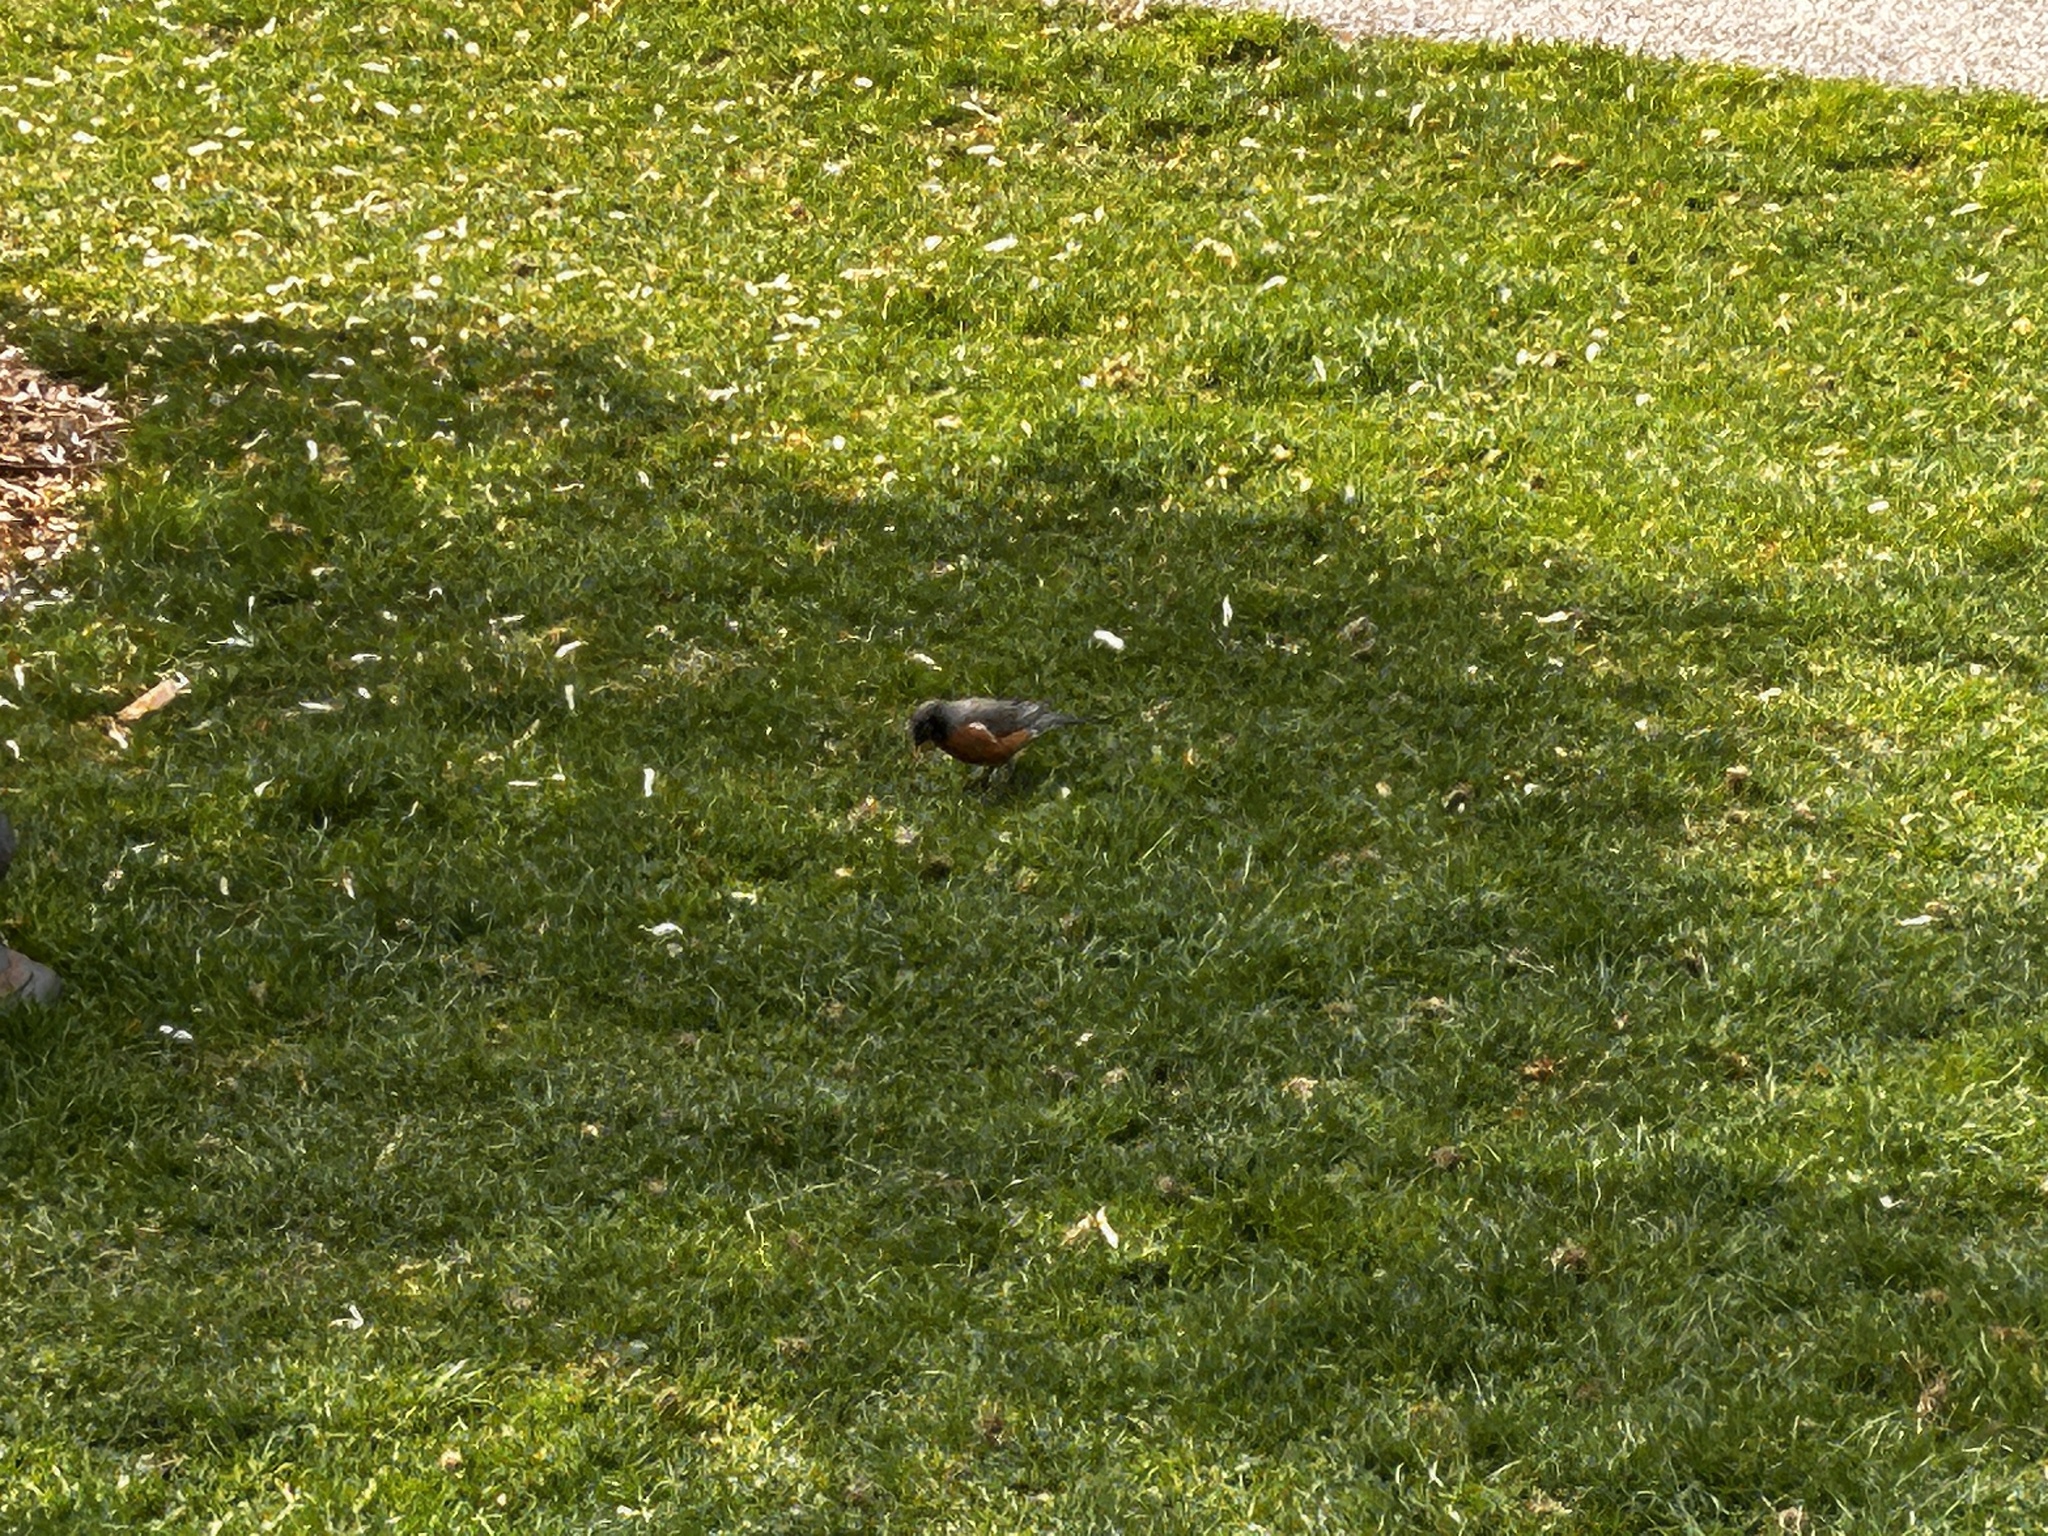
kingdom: Animalia
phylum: Chordata
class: Aves
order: Passeriformes
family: Turdidae
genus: Turdus
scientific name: Turdus migratorius
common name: American robin
